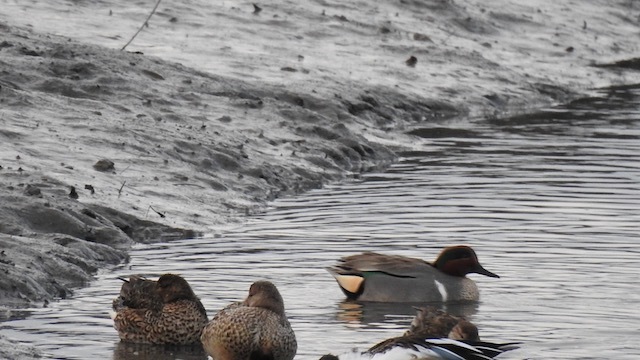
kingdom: Animalia
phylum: Chordata
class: Aves
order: Anseriformes
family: Anatidae
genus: Anas
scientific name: Anas carolinensis
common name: Green-winged teal
